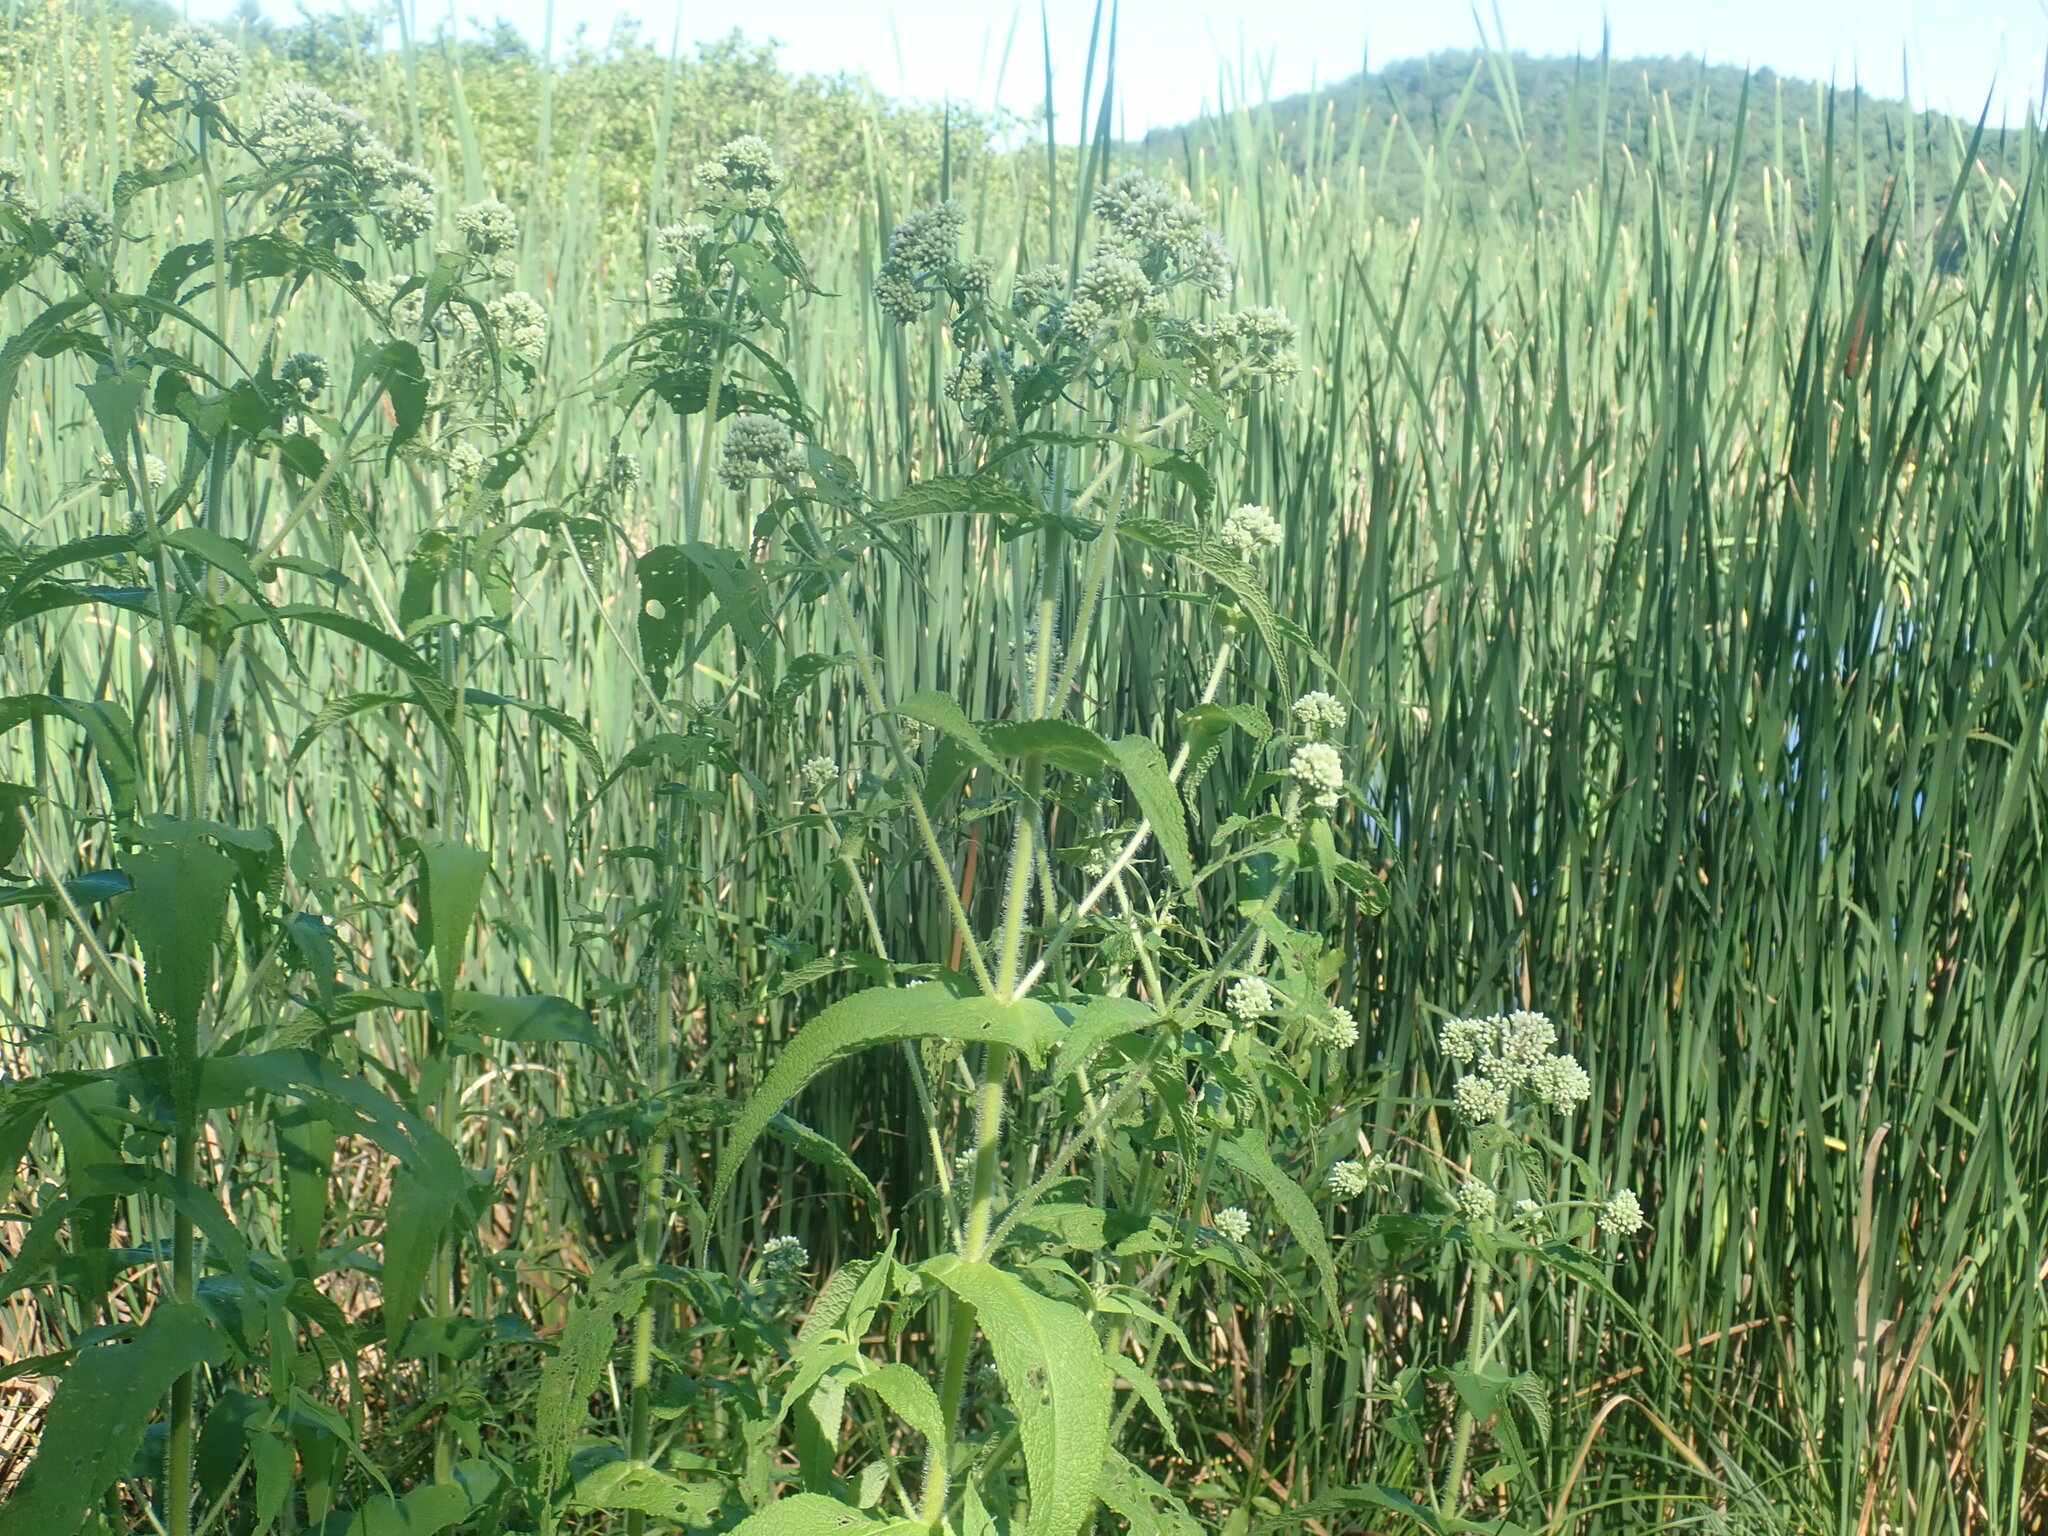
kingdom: Plantae
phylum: Tracheophyta
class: Magnoliopsida
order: Asterales
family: Asteraceae
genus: Eupatorium
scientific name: Eupatorium perfoliatum
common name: Boneset
